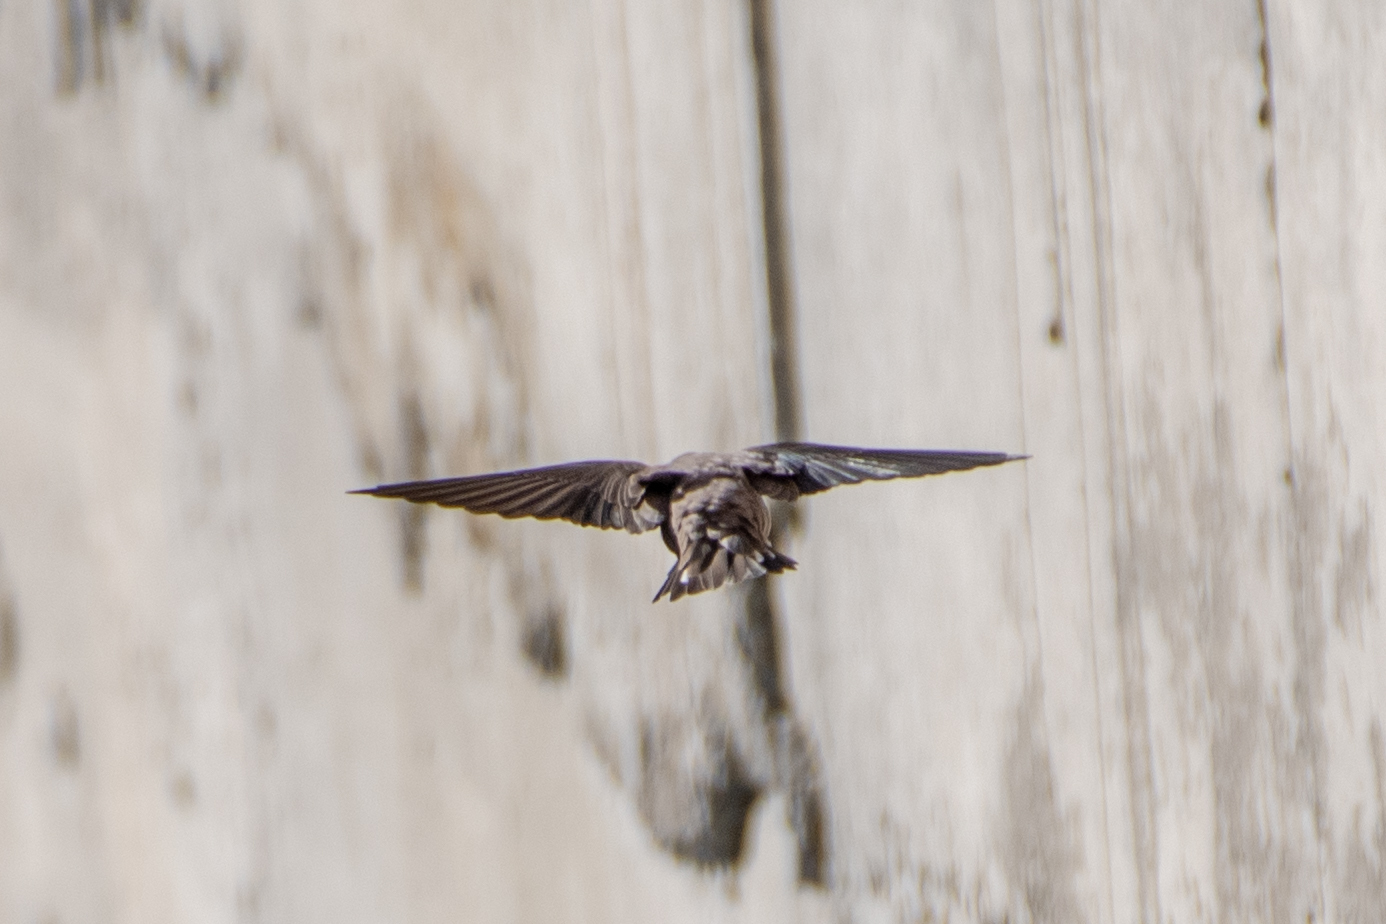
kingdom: Animalia
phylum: Chordata
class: Aves
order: Passeriformes
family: Hirundinidae
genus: Ptyonoprogne
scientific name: Ptyonoprogne rupestris
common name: Eurasian crag martin
